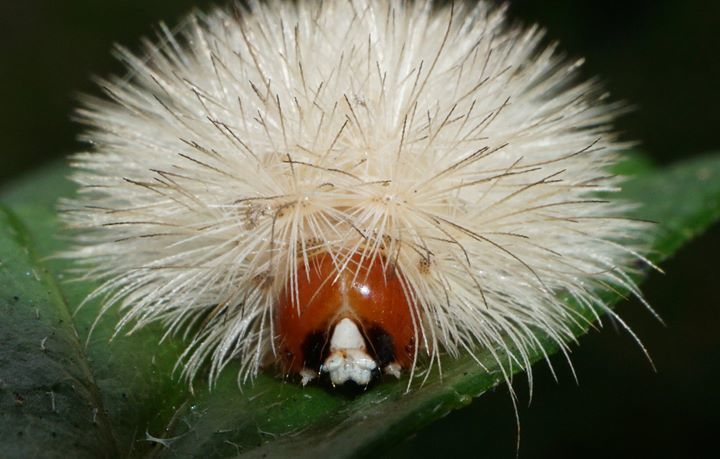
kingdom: Animalia
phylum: Arthropoda
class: Insecta
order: Lepidoptera
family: Erebidae
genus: Lymire
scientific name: Lymire edwardsii
